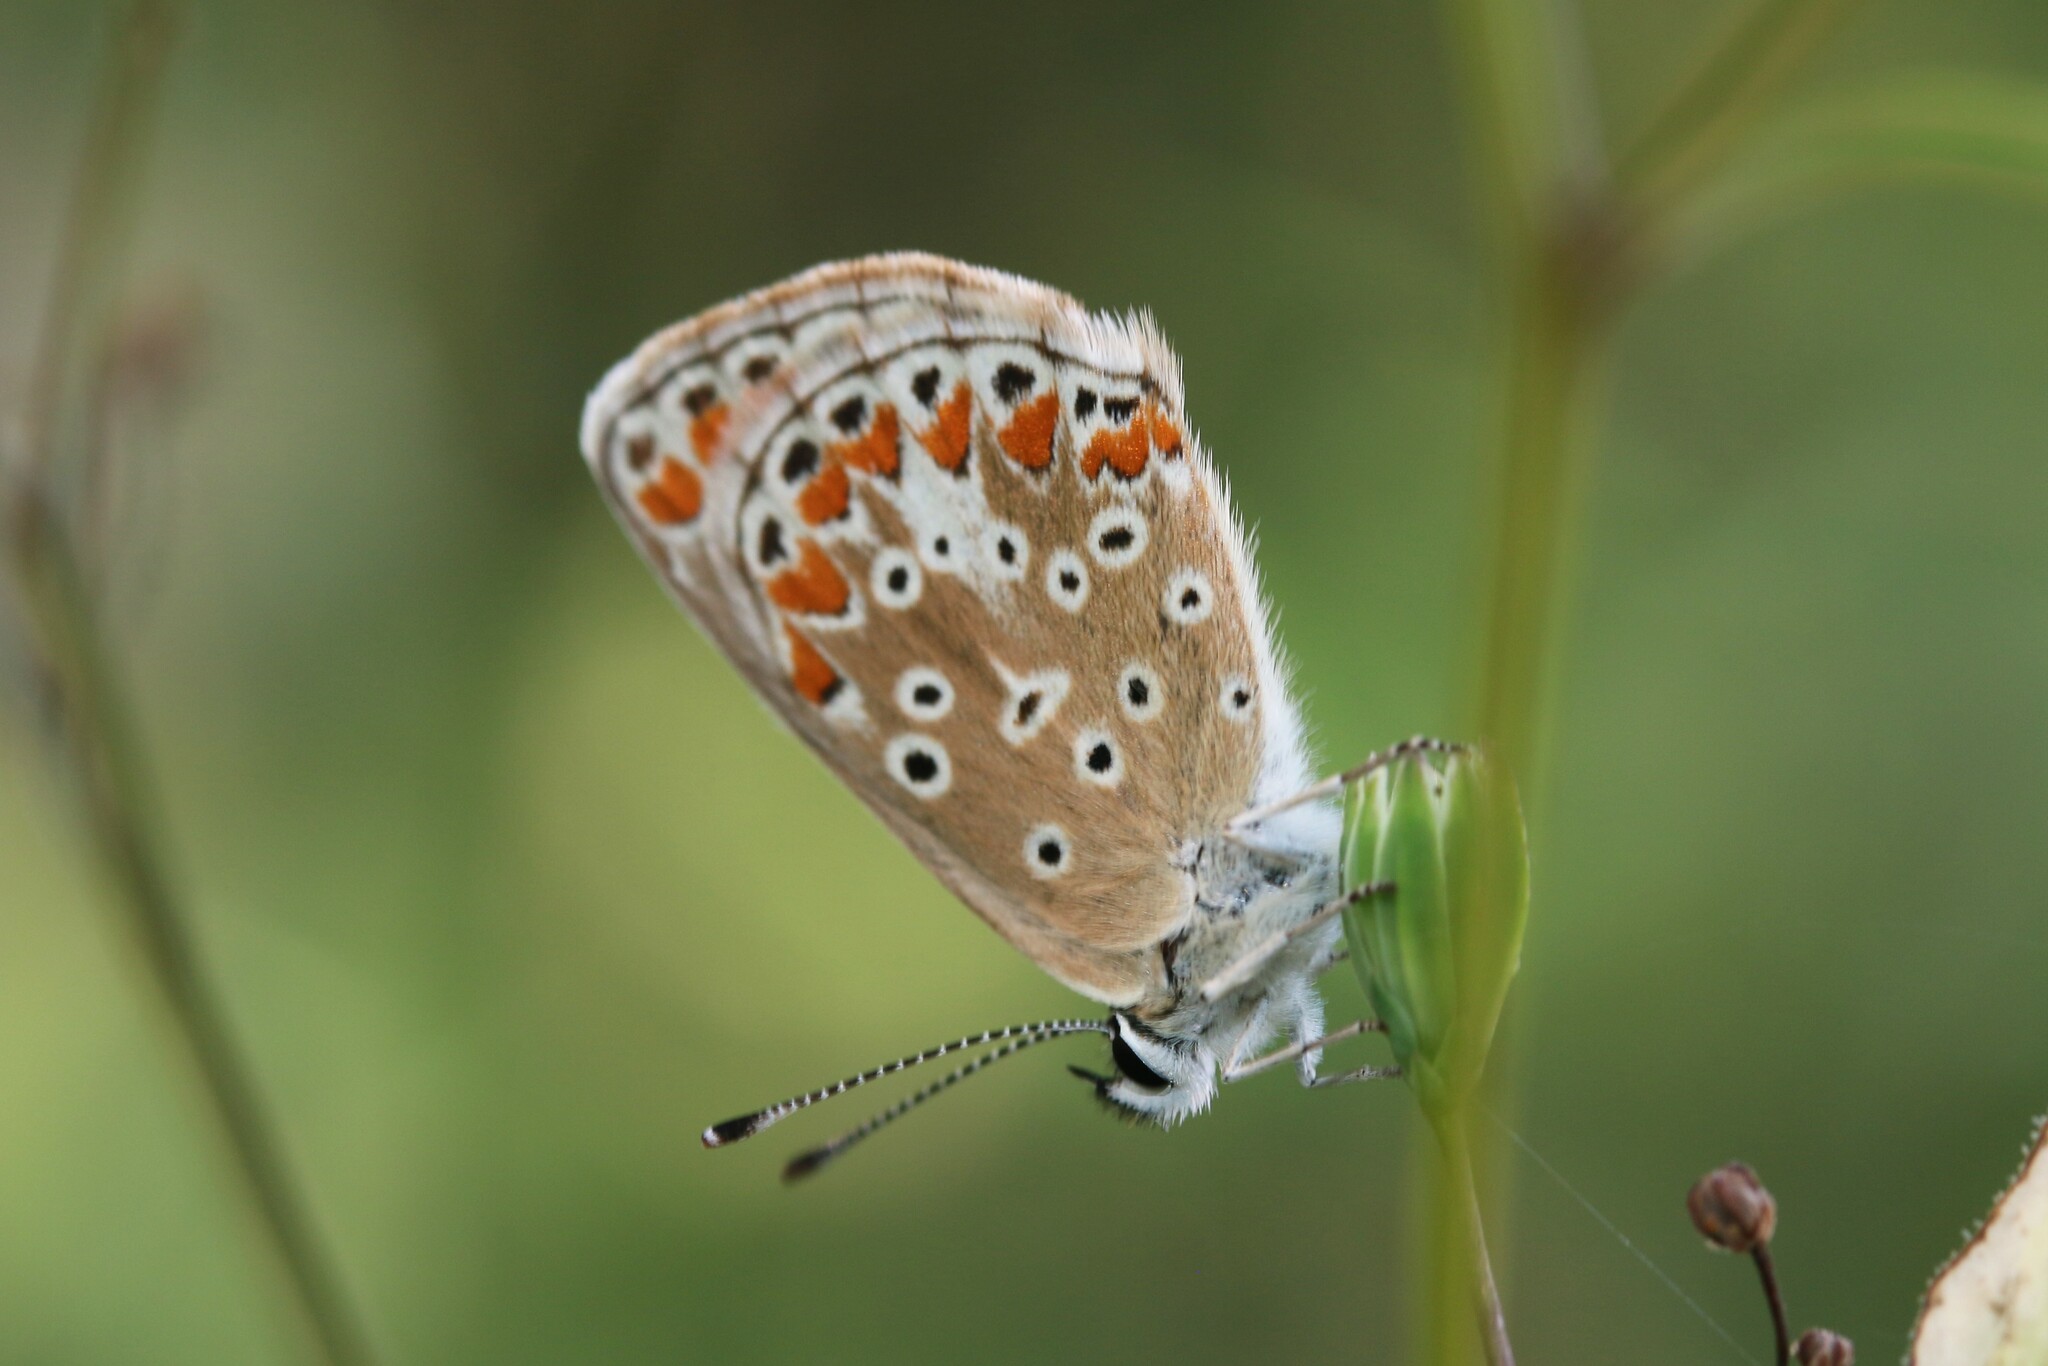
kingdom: Animalia
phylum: Arthropoda
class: Insecta
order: Lepidoptera
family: Lycaenidae
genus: Aricia
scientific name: Aricia agestis
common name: Brown argus
